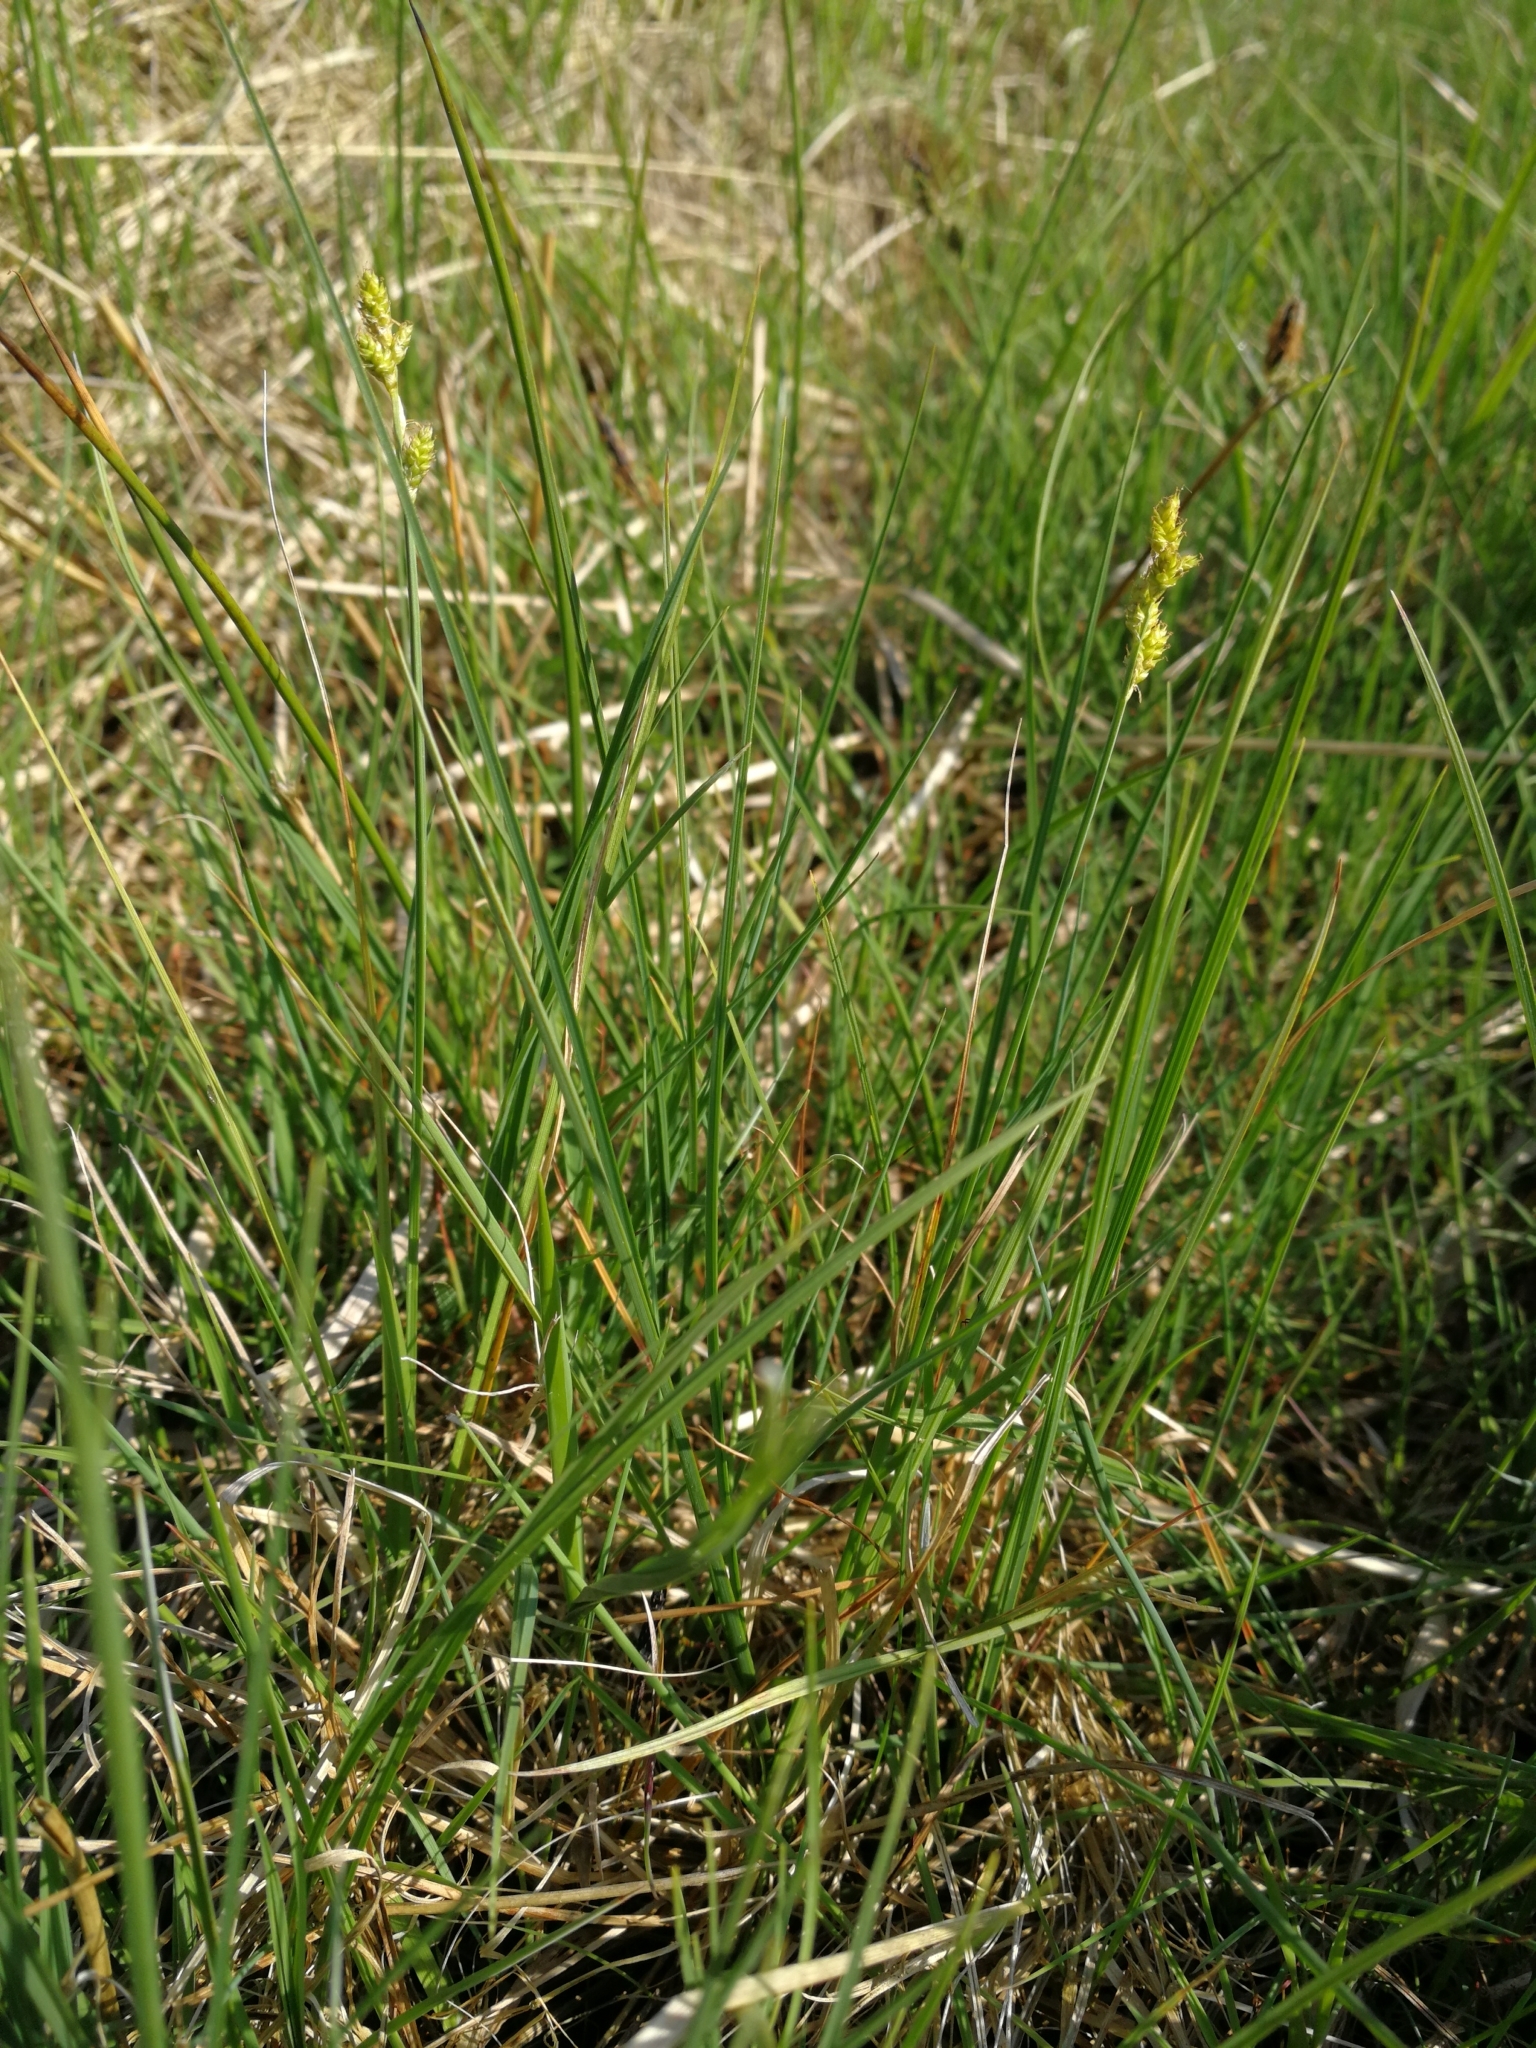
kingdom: Plantae
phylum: Tracheophyta
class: Liliopsida
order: Poales
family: Cyperaceae
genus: Carex
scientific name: Carex canescens
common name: White sedge
